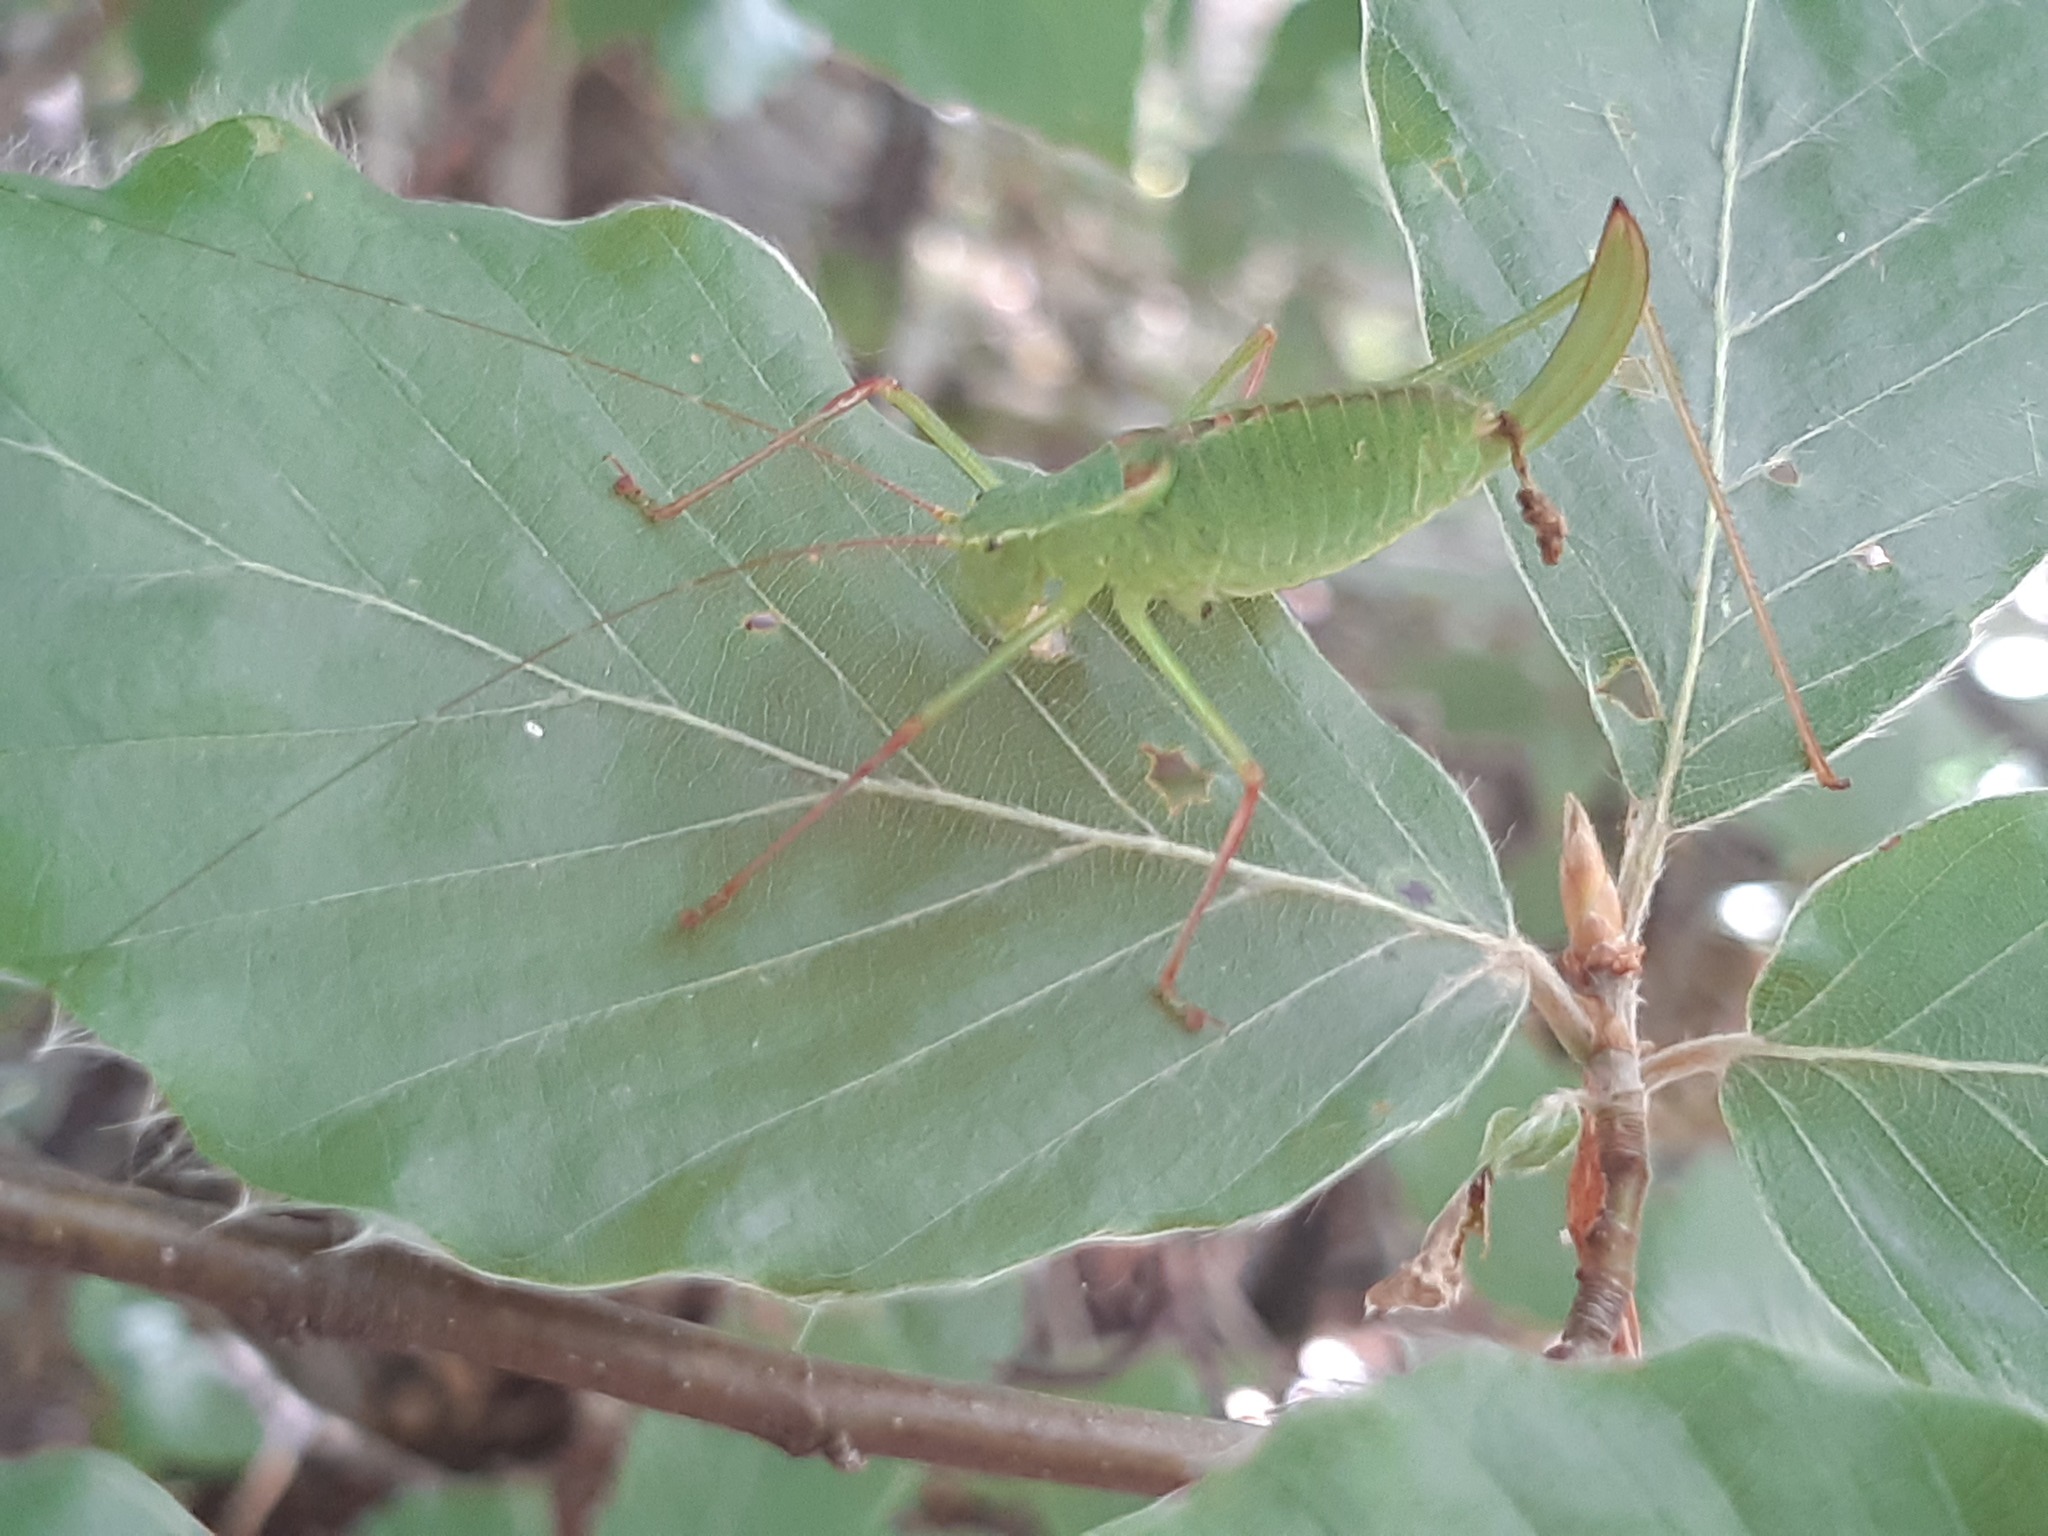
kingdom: Animalia
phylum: Arthropoda
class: Insecta
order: Orthoptera
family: Tettigoniidae
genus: Leptophyes
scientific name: Leptophyes laticauda
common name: Long-tailed speckled bush-cricket
